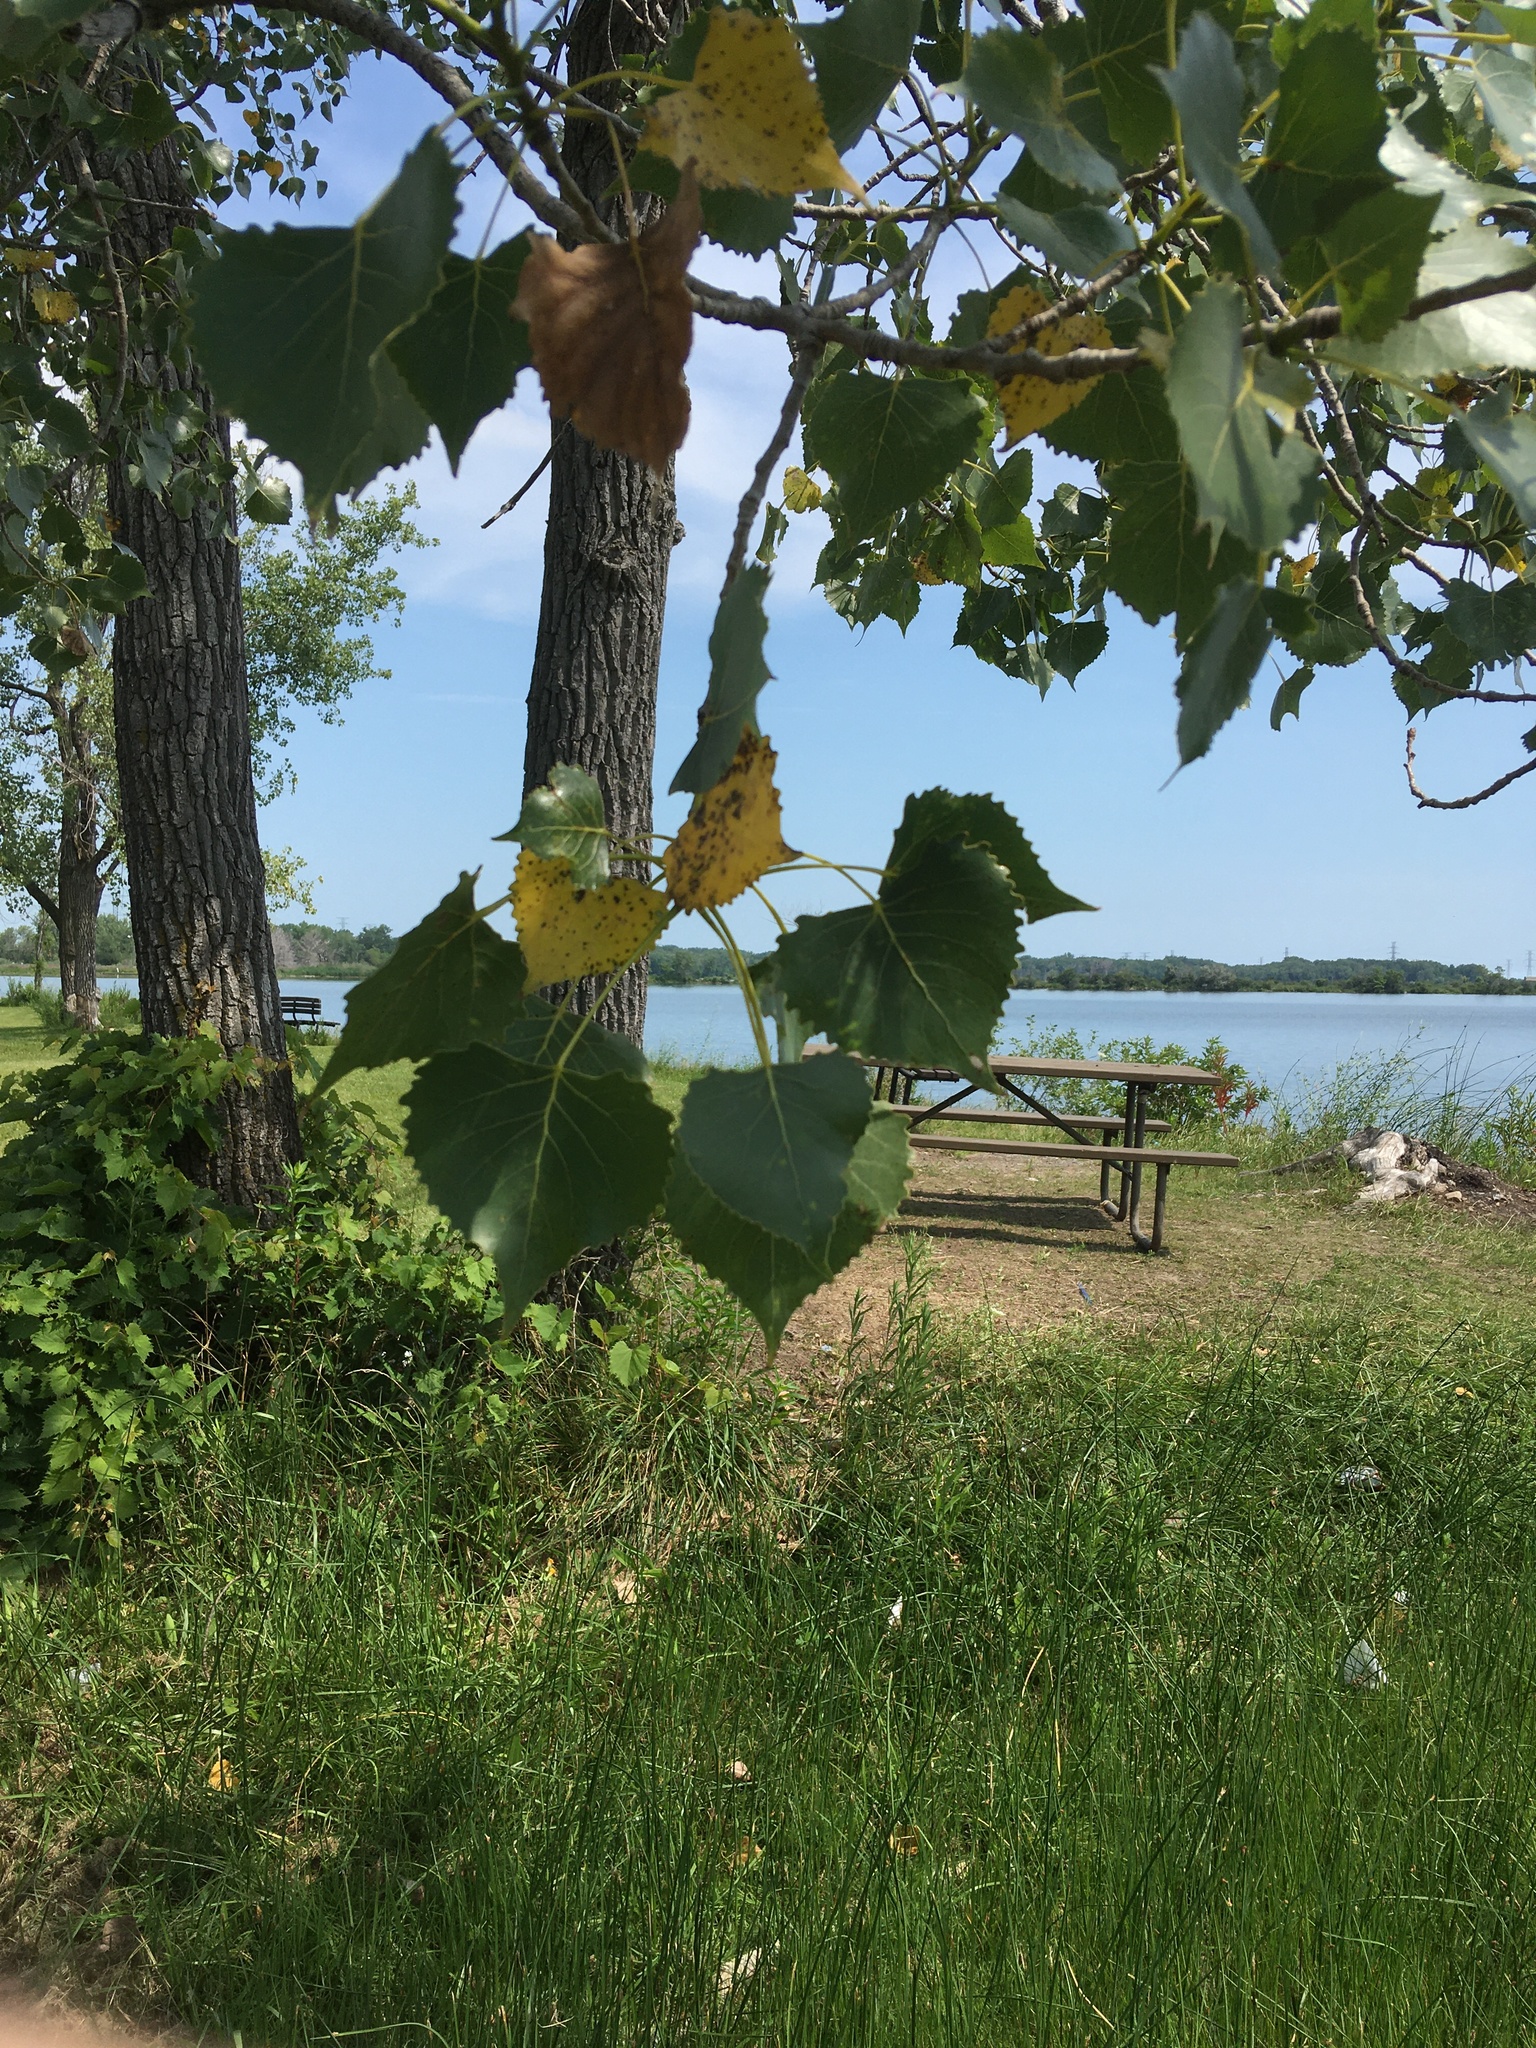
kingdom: Plantae
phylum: Tracheophyta
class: Magnoliopsida
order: Malpighiales
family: Salicaceae
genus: Populus
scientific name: Populus deltoides
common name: Eastern cottonwood
